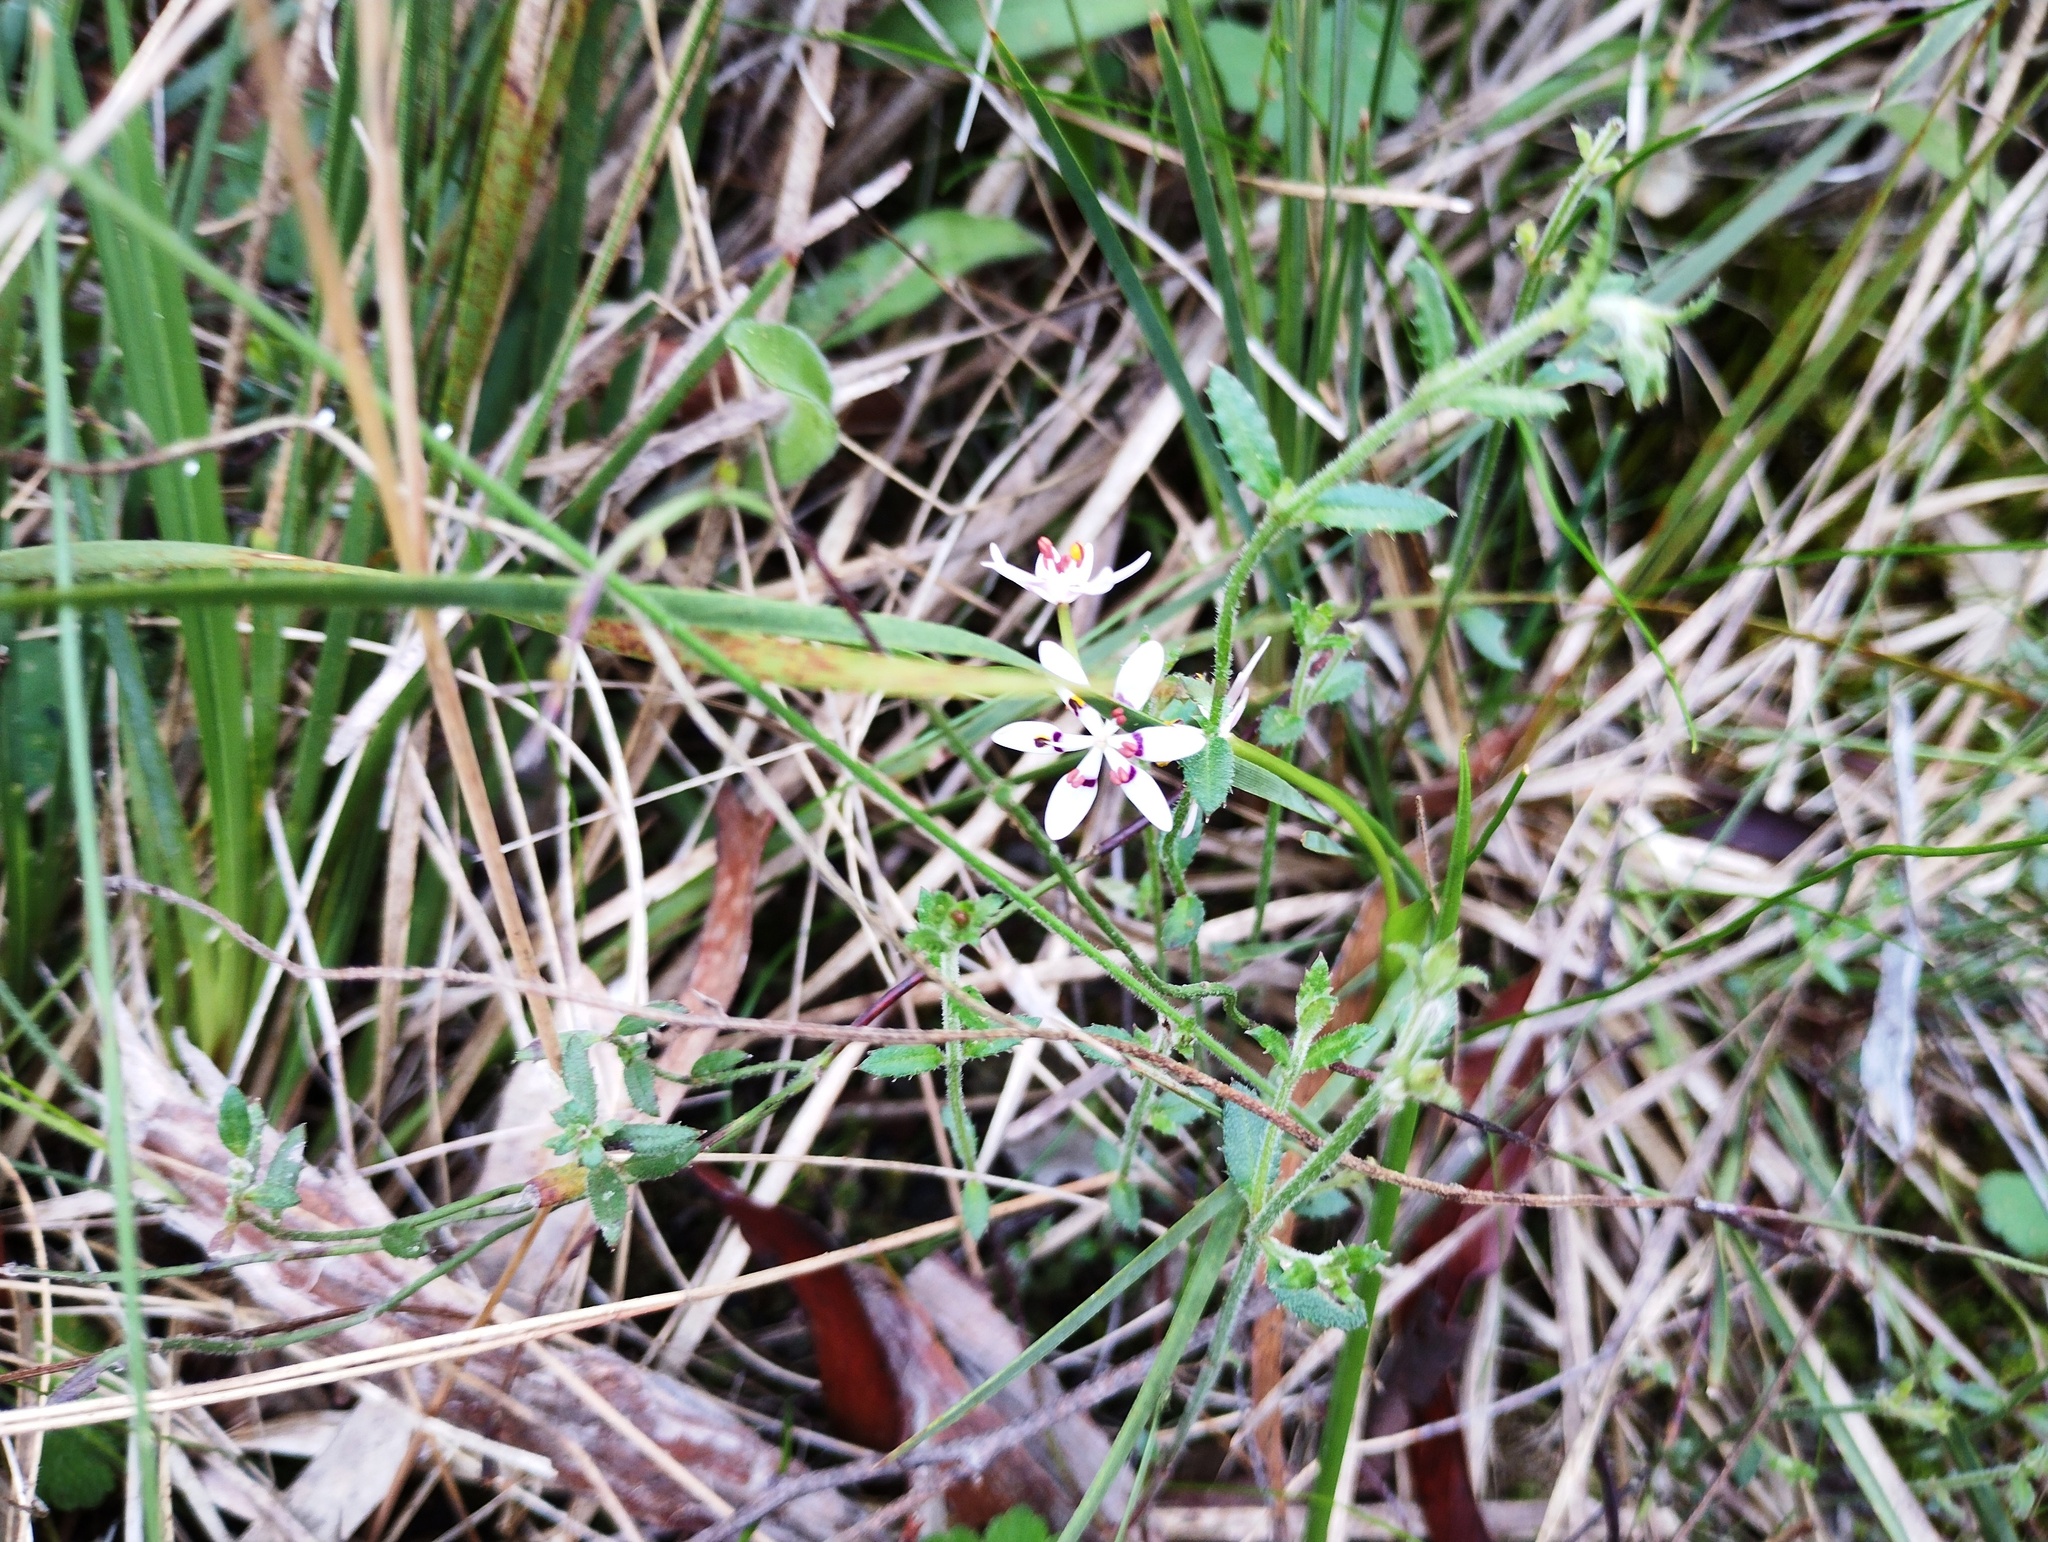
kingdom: Plantae
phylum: Tracheophyta
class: Liliopsida
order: Liliales
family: Colchicaceae
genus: Wurmbea
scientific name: Wurmbea dioica
